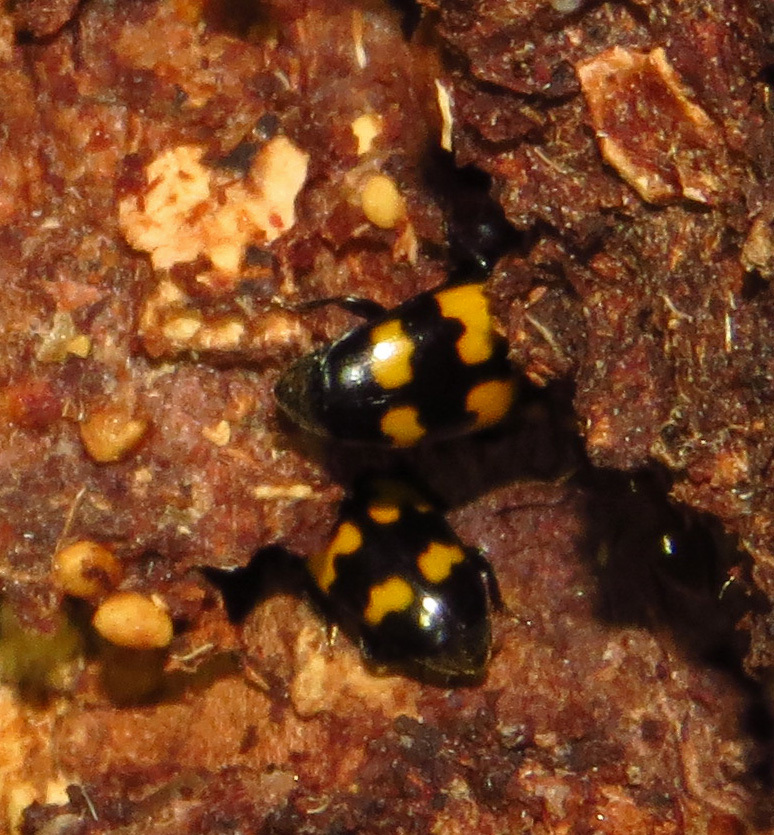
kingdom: Animalia
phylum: Arthropoda
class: Insecta
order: Coleoptera
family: Nitidulidae
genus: Glischrochilus
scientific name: Glischrochilus fasciatus
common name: Picnic beetle
